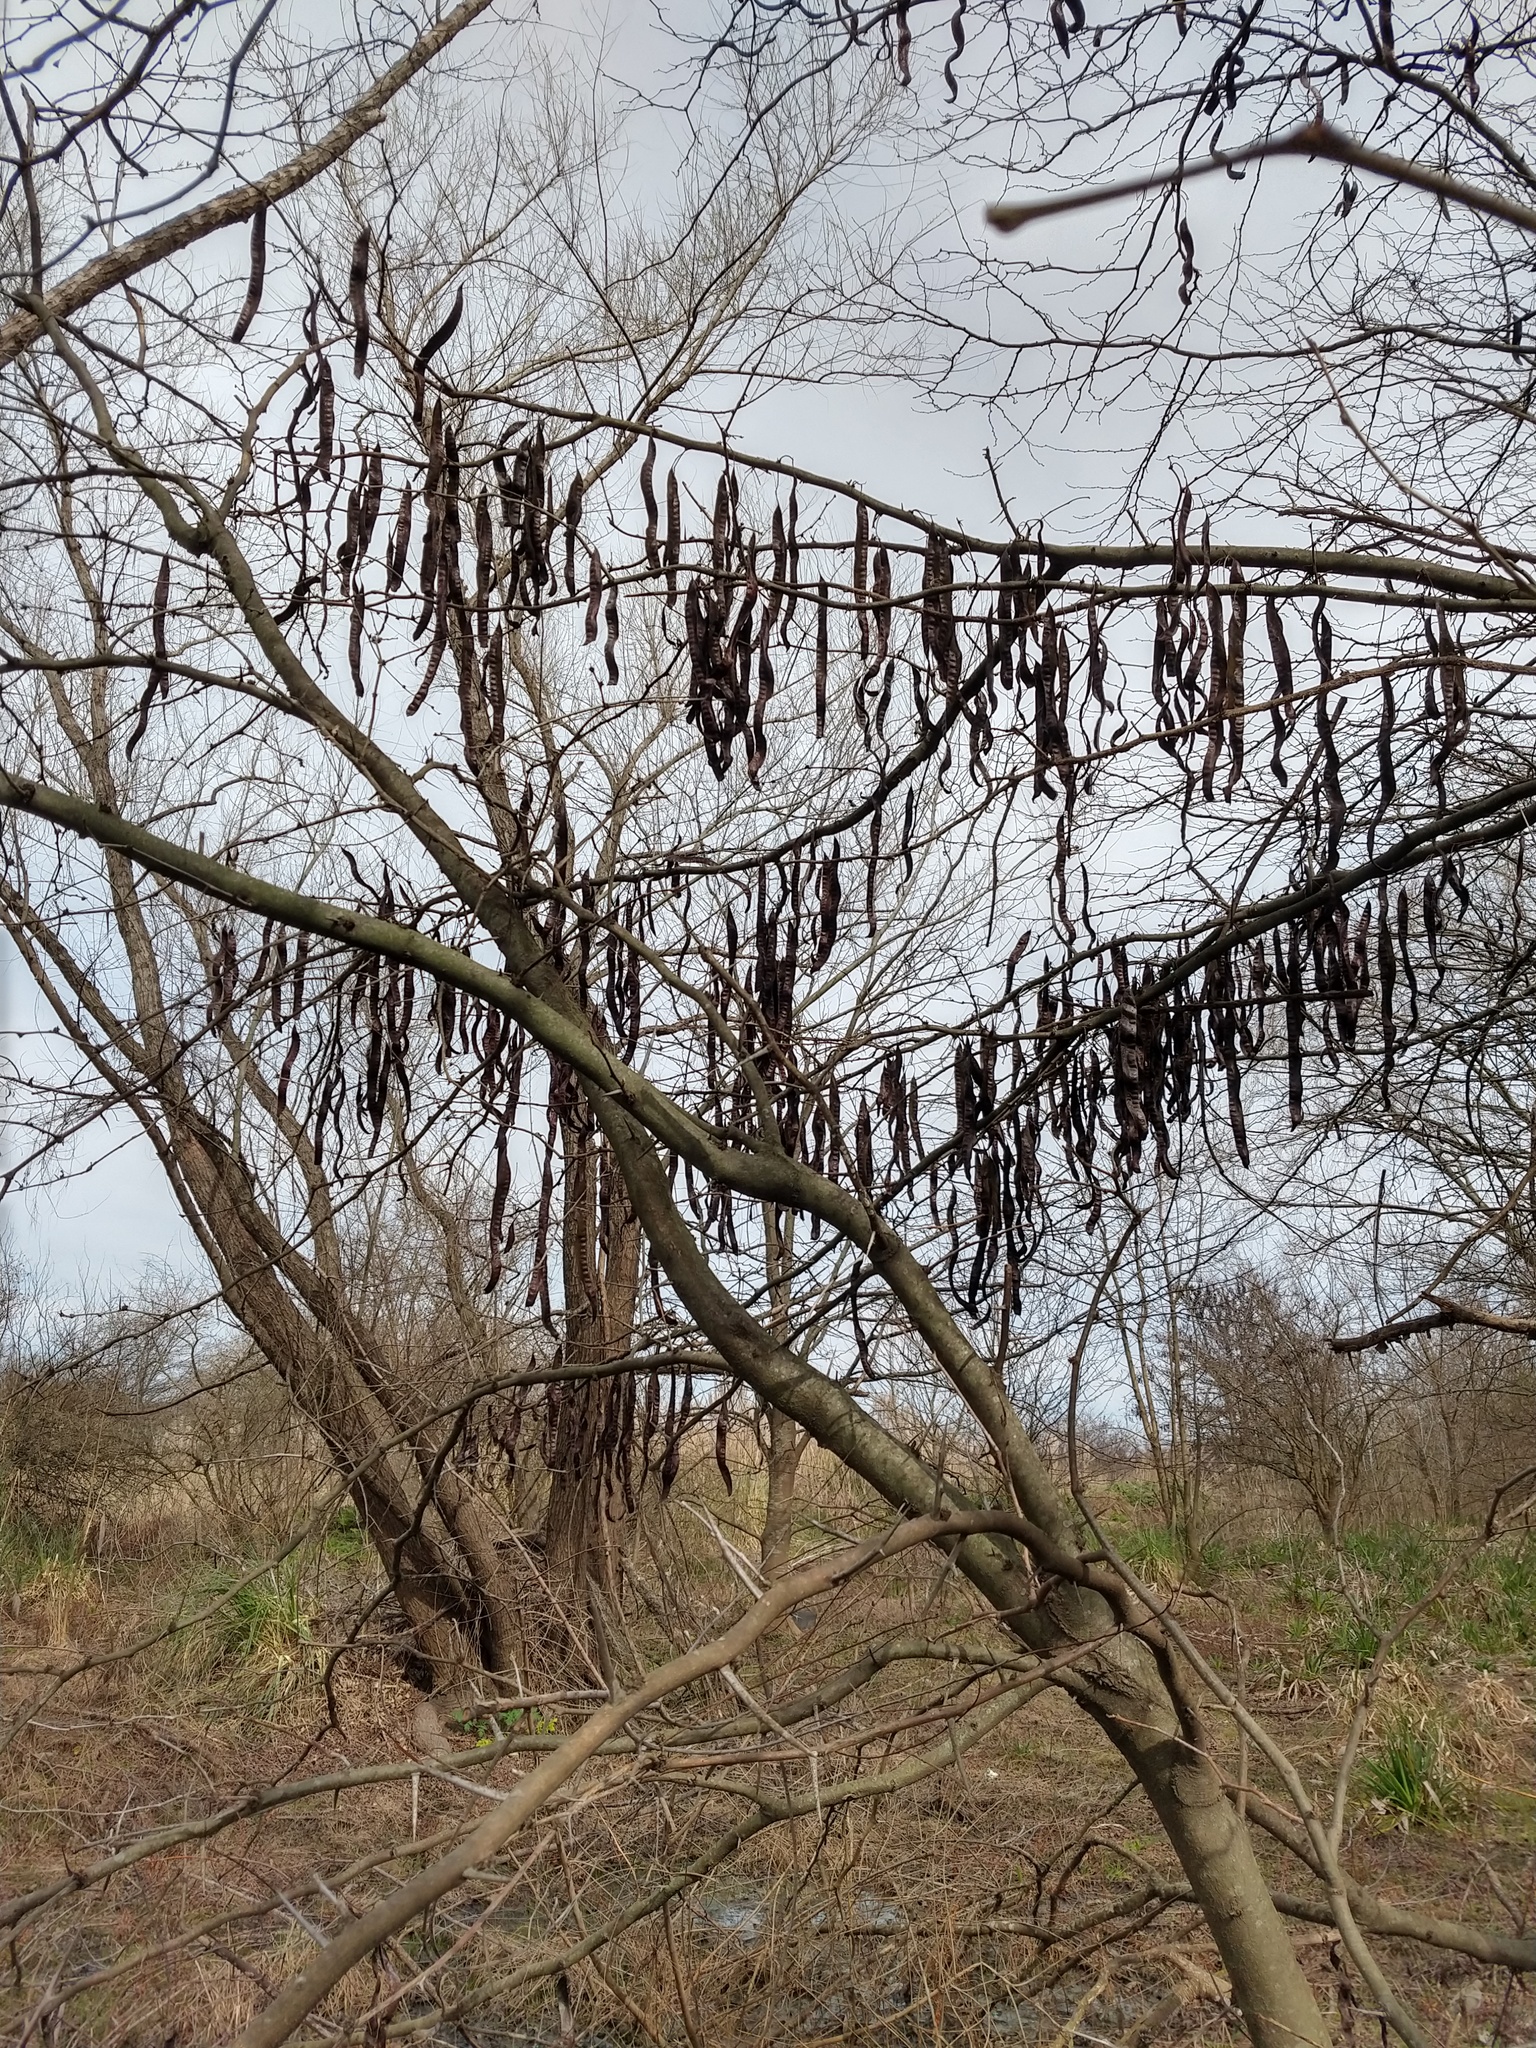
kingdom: Plantae
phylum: Tracheophyta
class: Magnoliopsida
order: Fabales
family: Fabaceae
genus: Gleditsia
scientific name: Gleditsia triacanthos
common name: Common honeylocust
